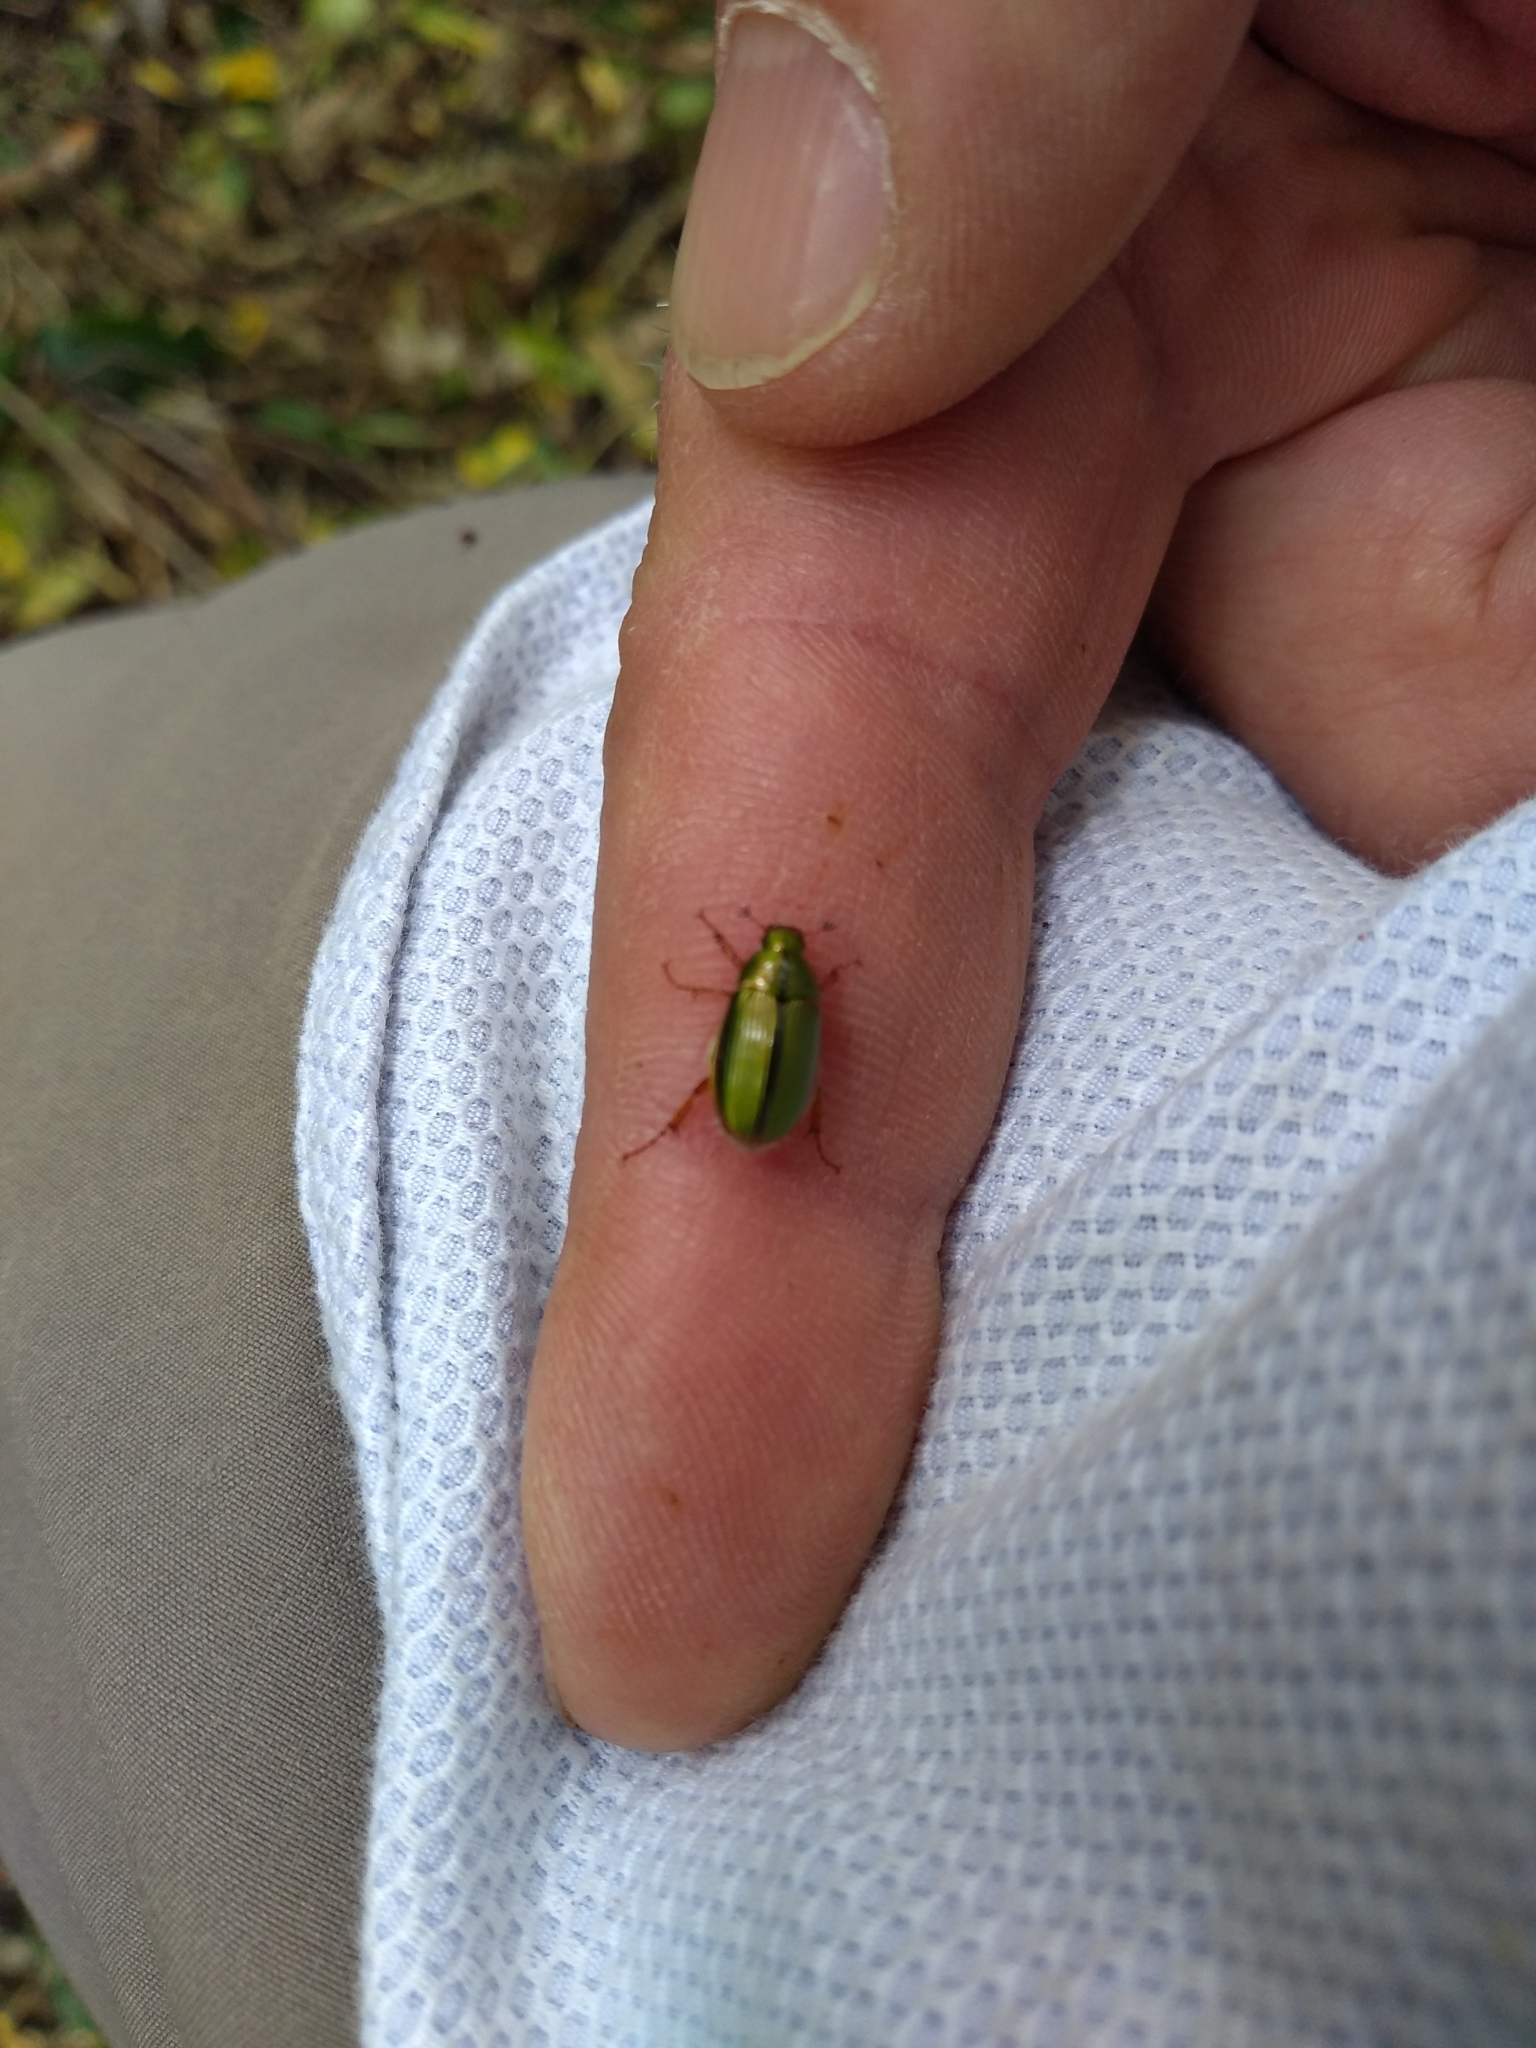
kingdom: Animalia
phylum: Arthropoda
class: Insecta
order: Coleoptera
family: Scarabaeidae
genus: Pyronota
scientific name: Pyronota festiva
